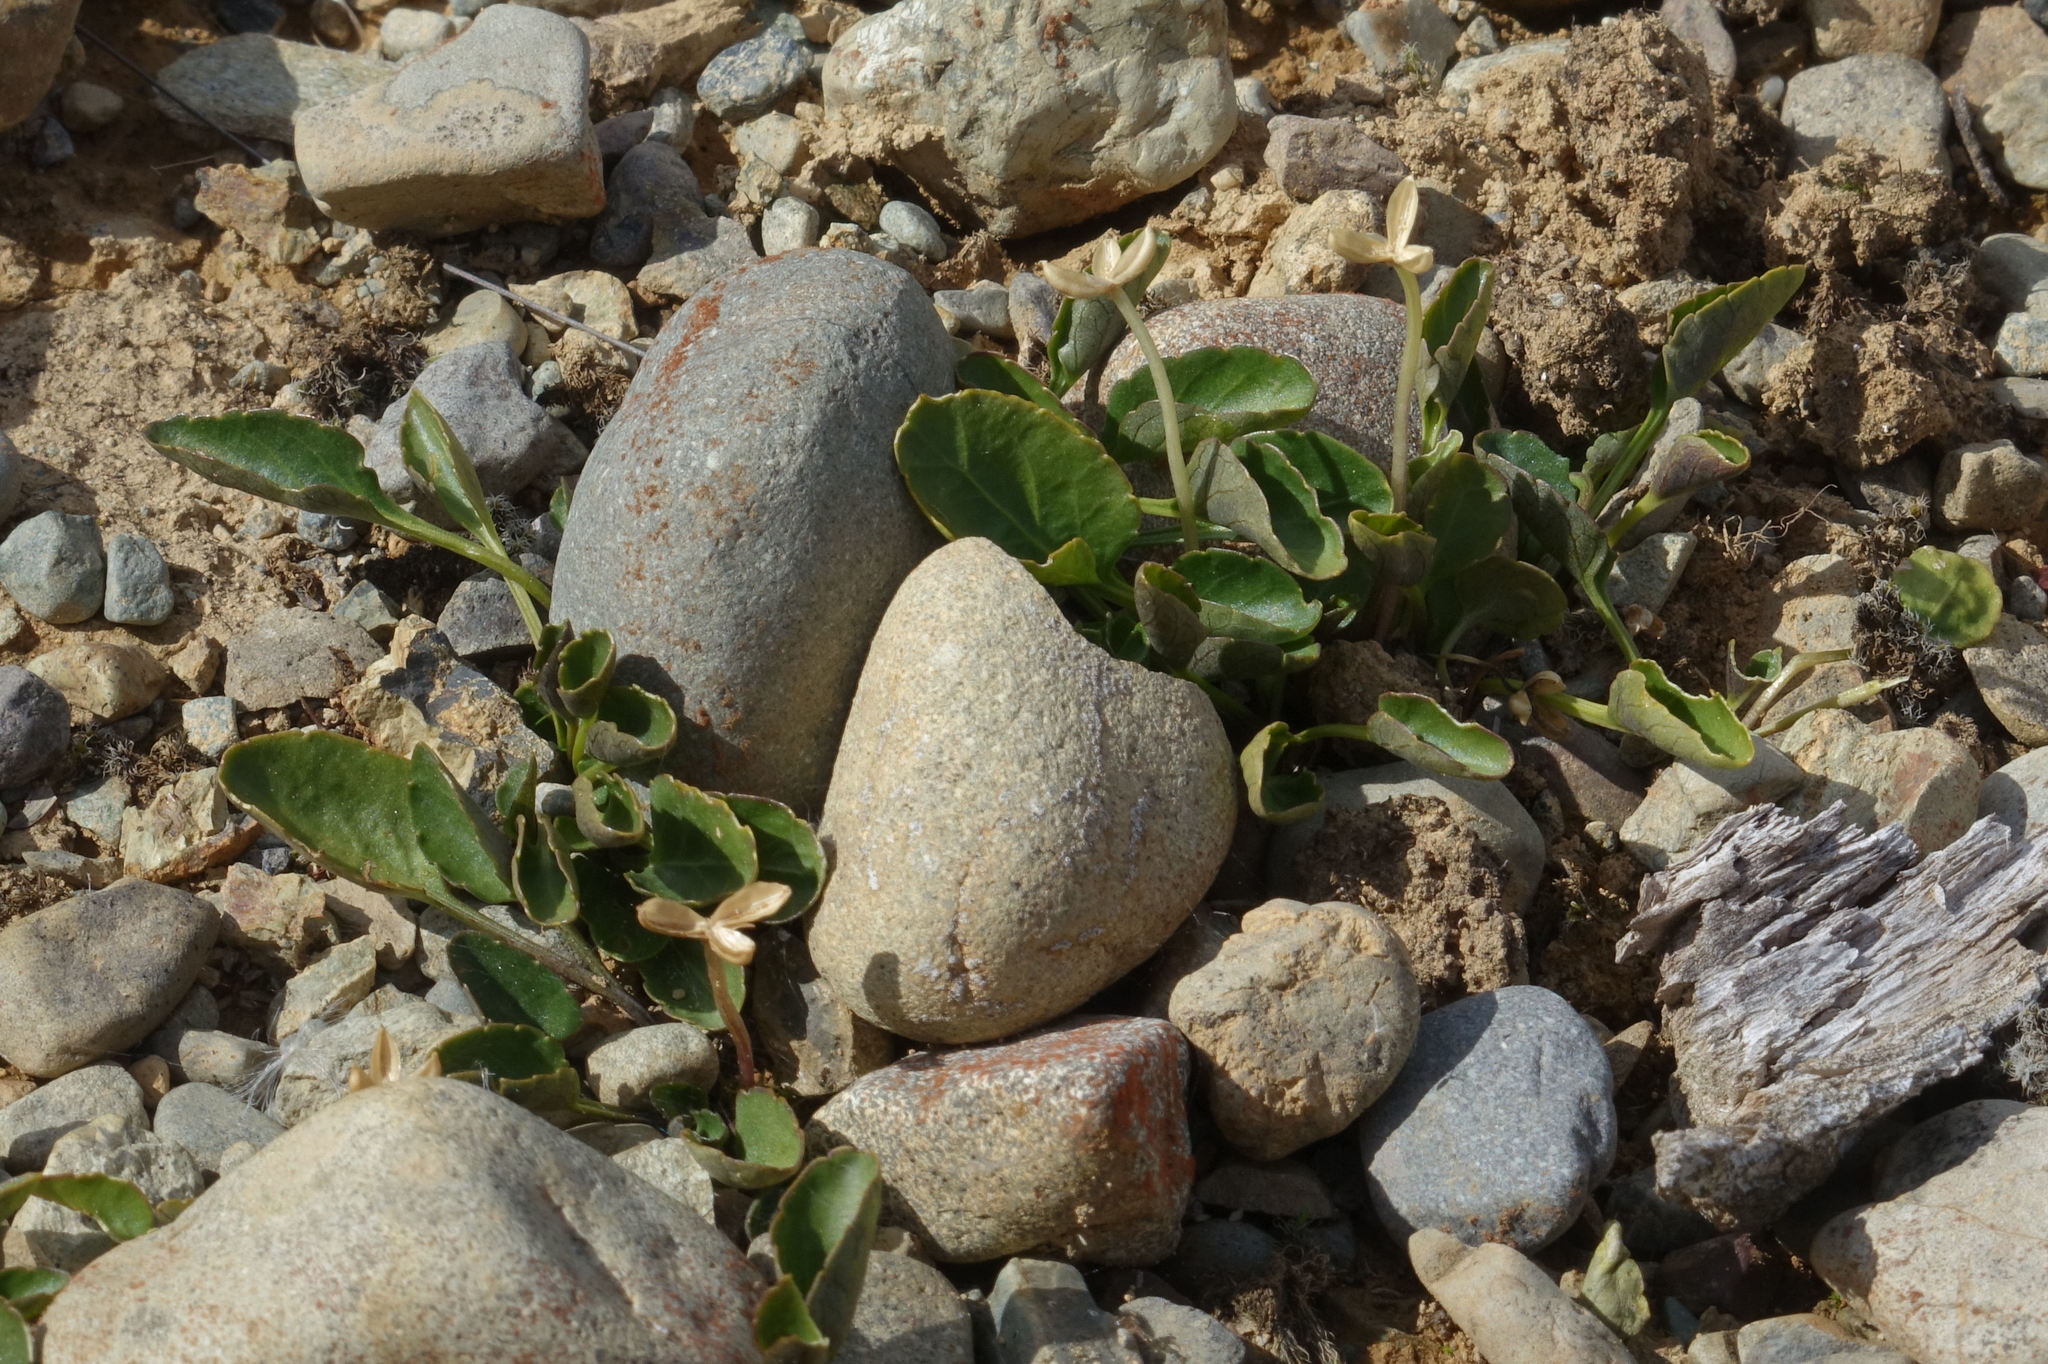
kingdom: Plantae
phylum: Tracheophyta
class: Magnoliopsida
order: Malpighiales
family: Violaceae
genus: Viola
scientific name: Viola cunninghamii
